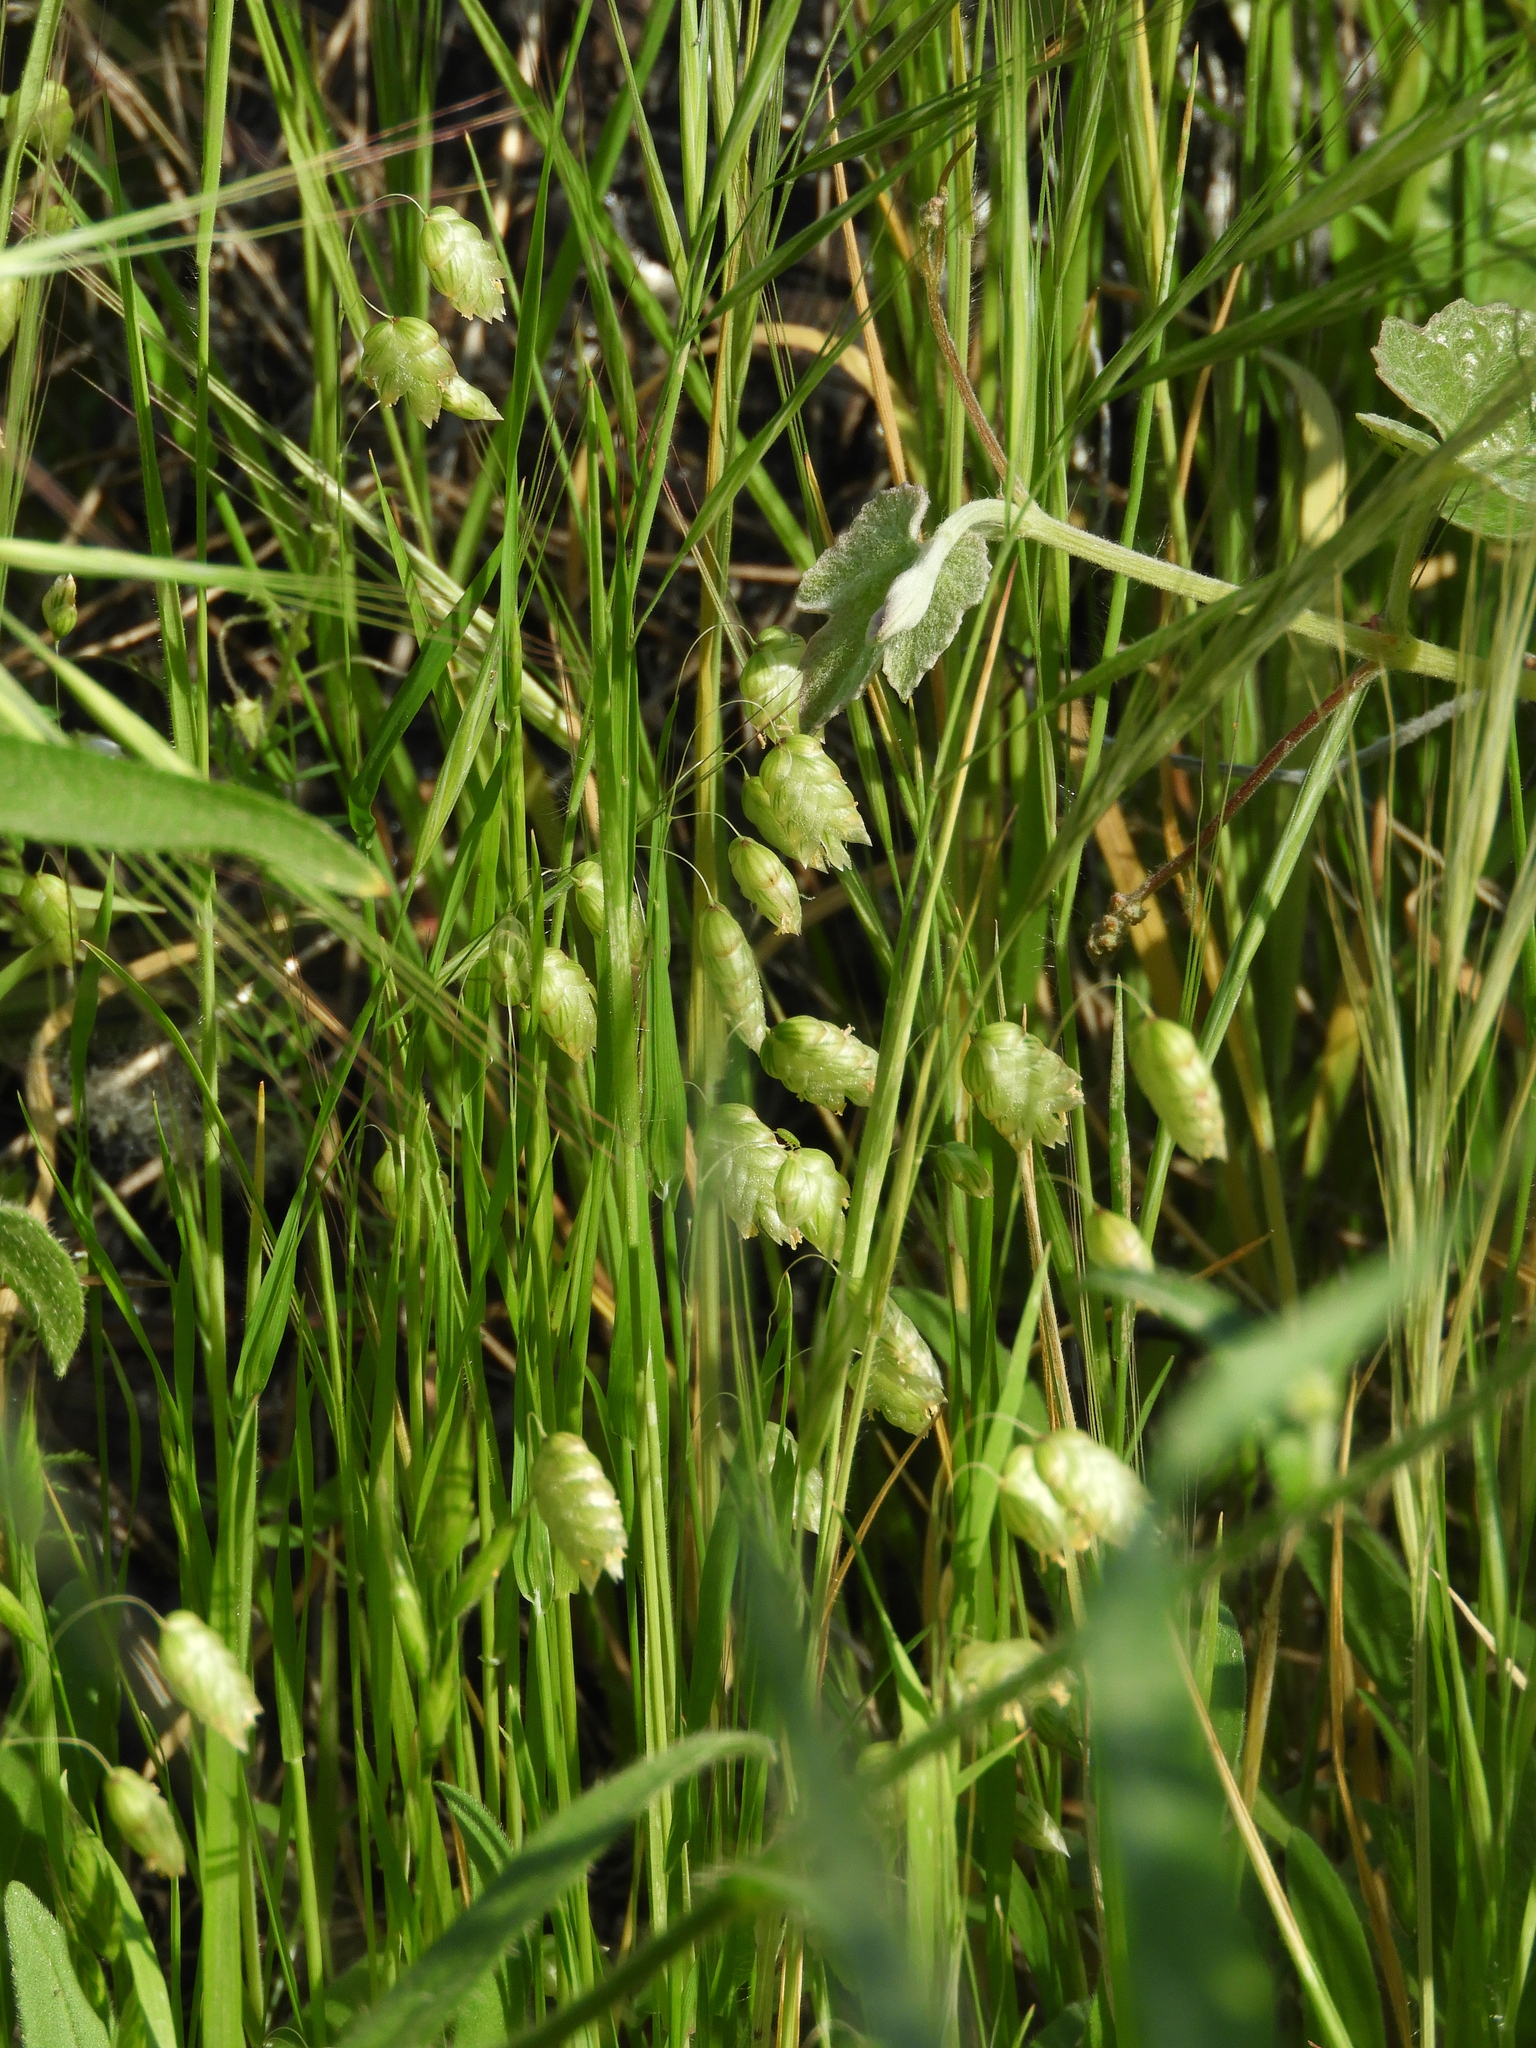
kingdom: Plantae
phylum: Tracheophyta
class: Liliopsida
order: Poales
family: Poaceae
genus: Briza
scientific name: Briza maxima
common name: Big quakinggrass
